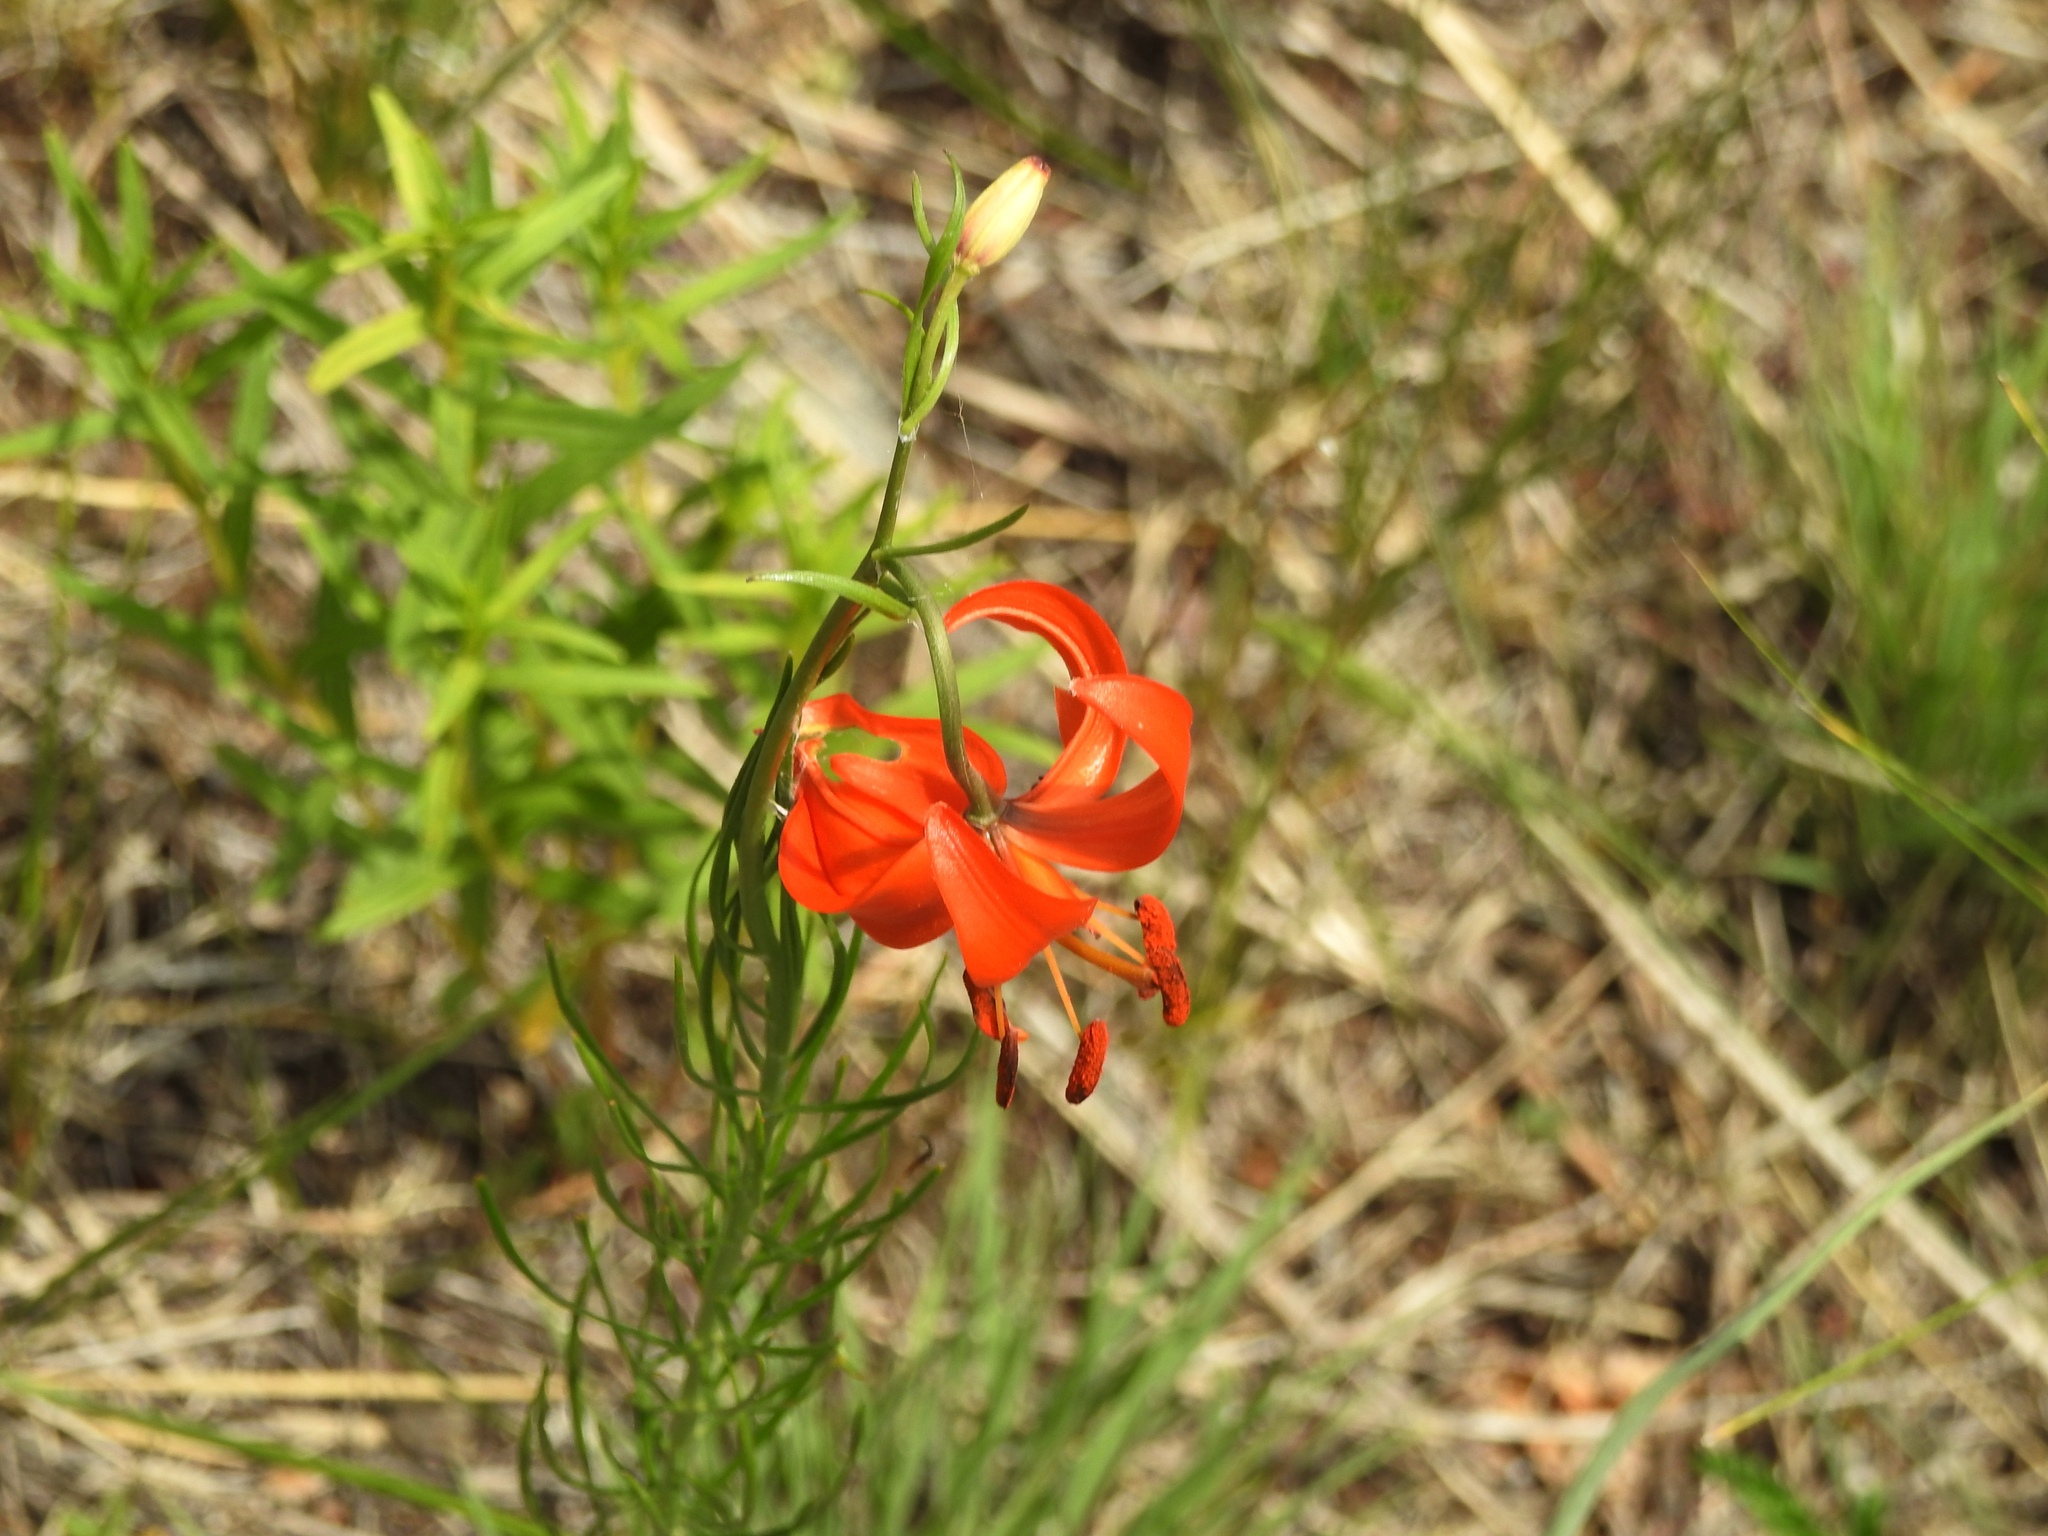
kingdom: Plantae
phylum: Tracheophyta
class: Liliopsida
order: Liliales
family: Liliaceae
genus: Lilium
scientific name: Lilium pumilum
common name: Coral lily
